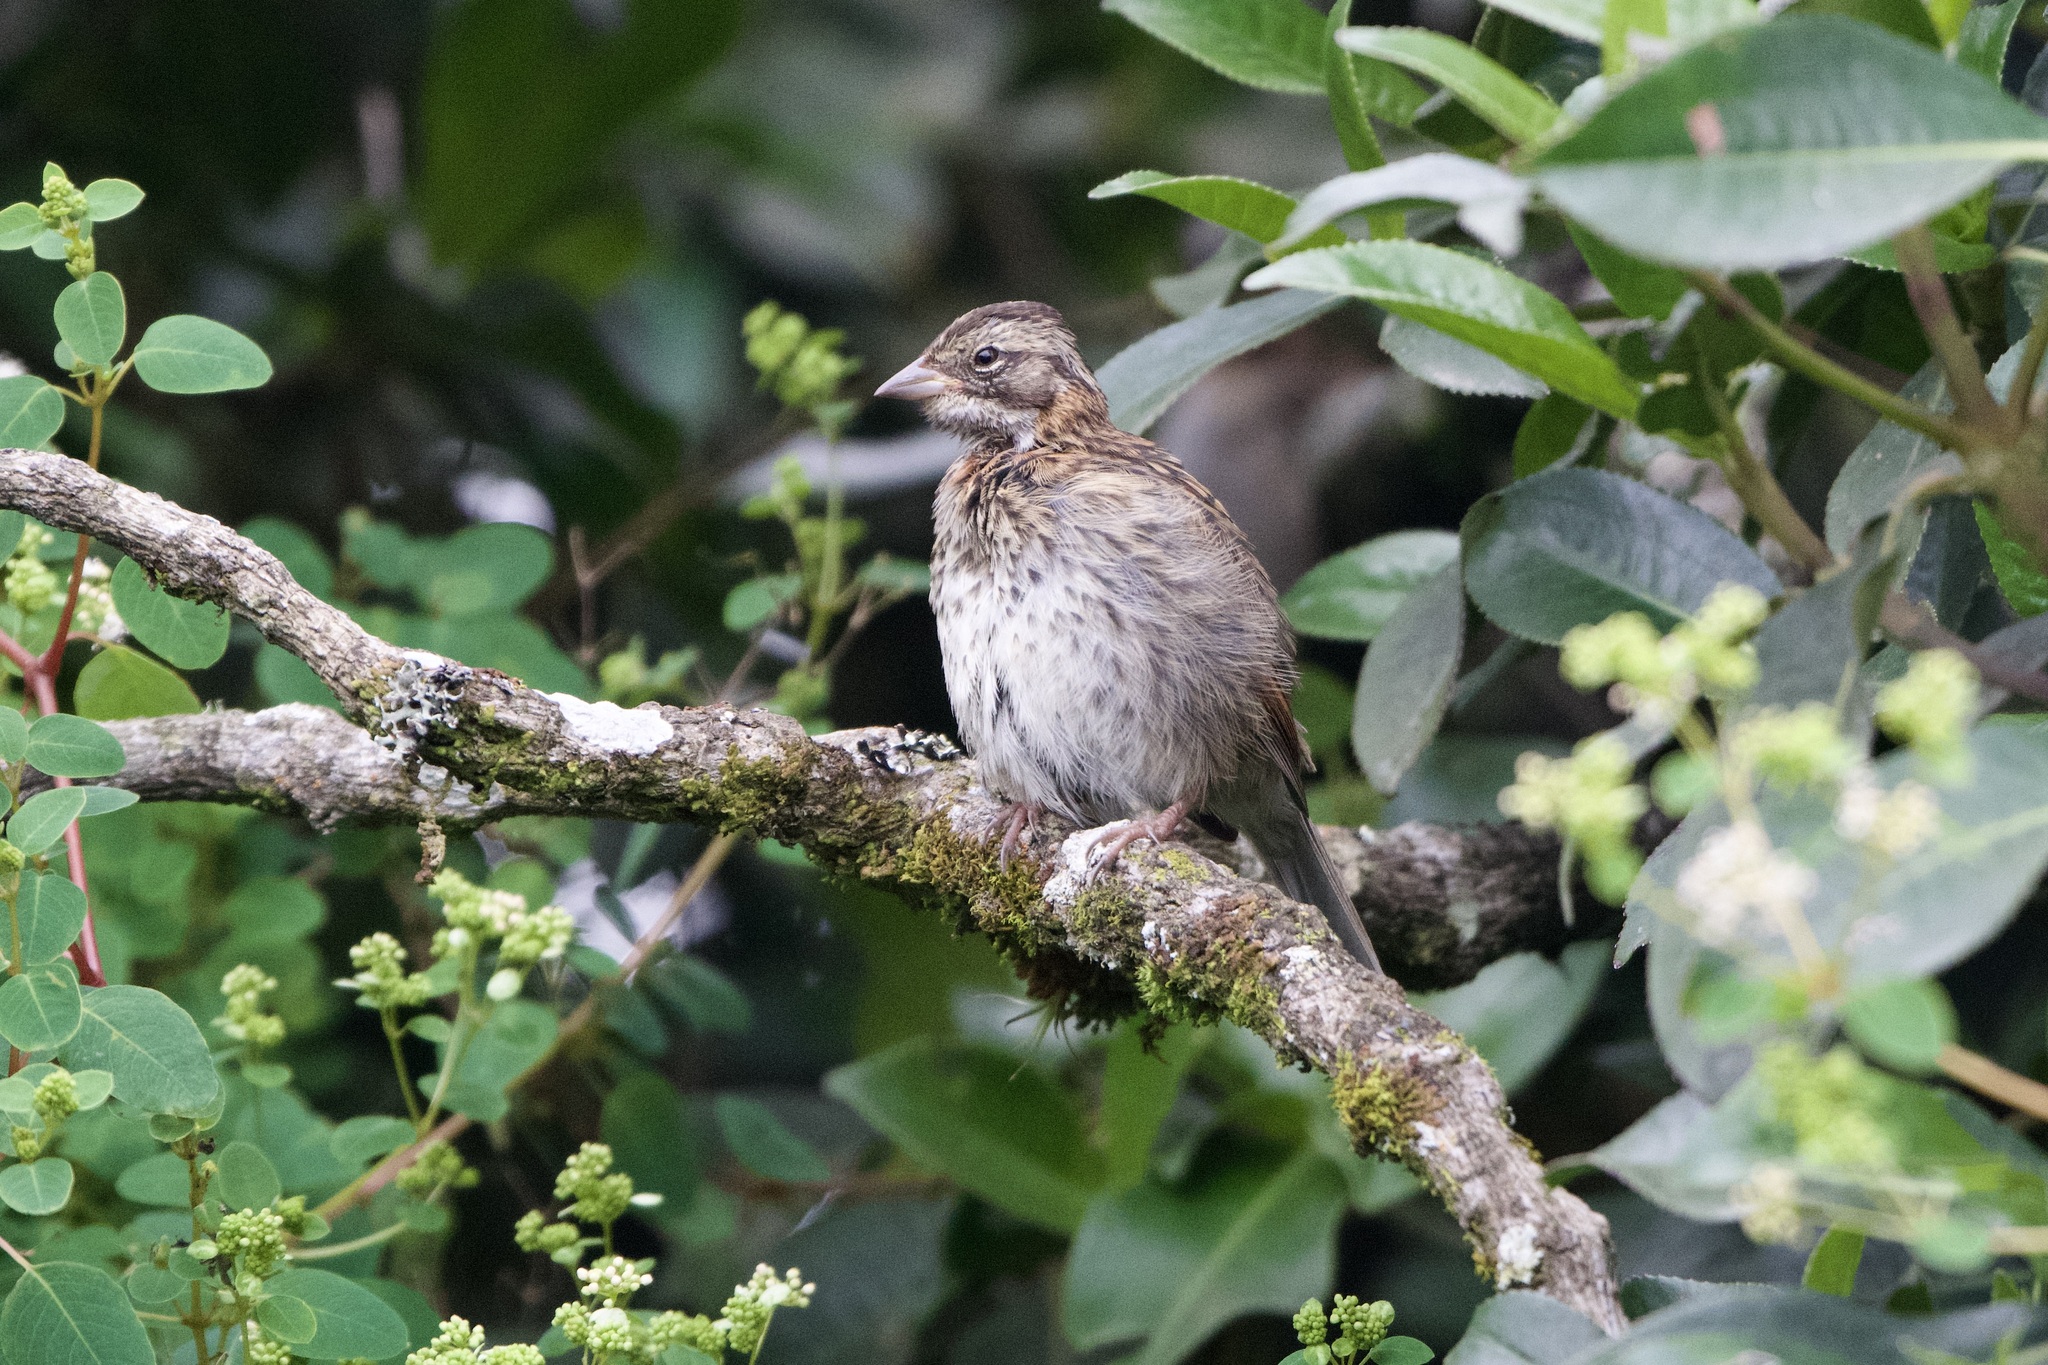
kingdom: Animalia
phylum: Chordata
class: Aves
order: Passeriformes
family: Passerellidae
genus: Zonotrichia
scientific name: Zonotrichia capensis
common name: Rufous-collared sparrow
